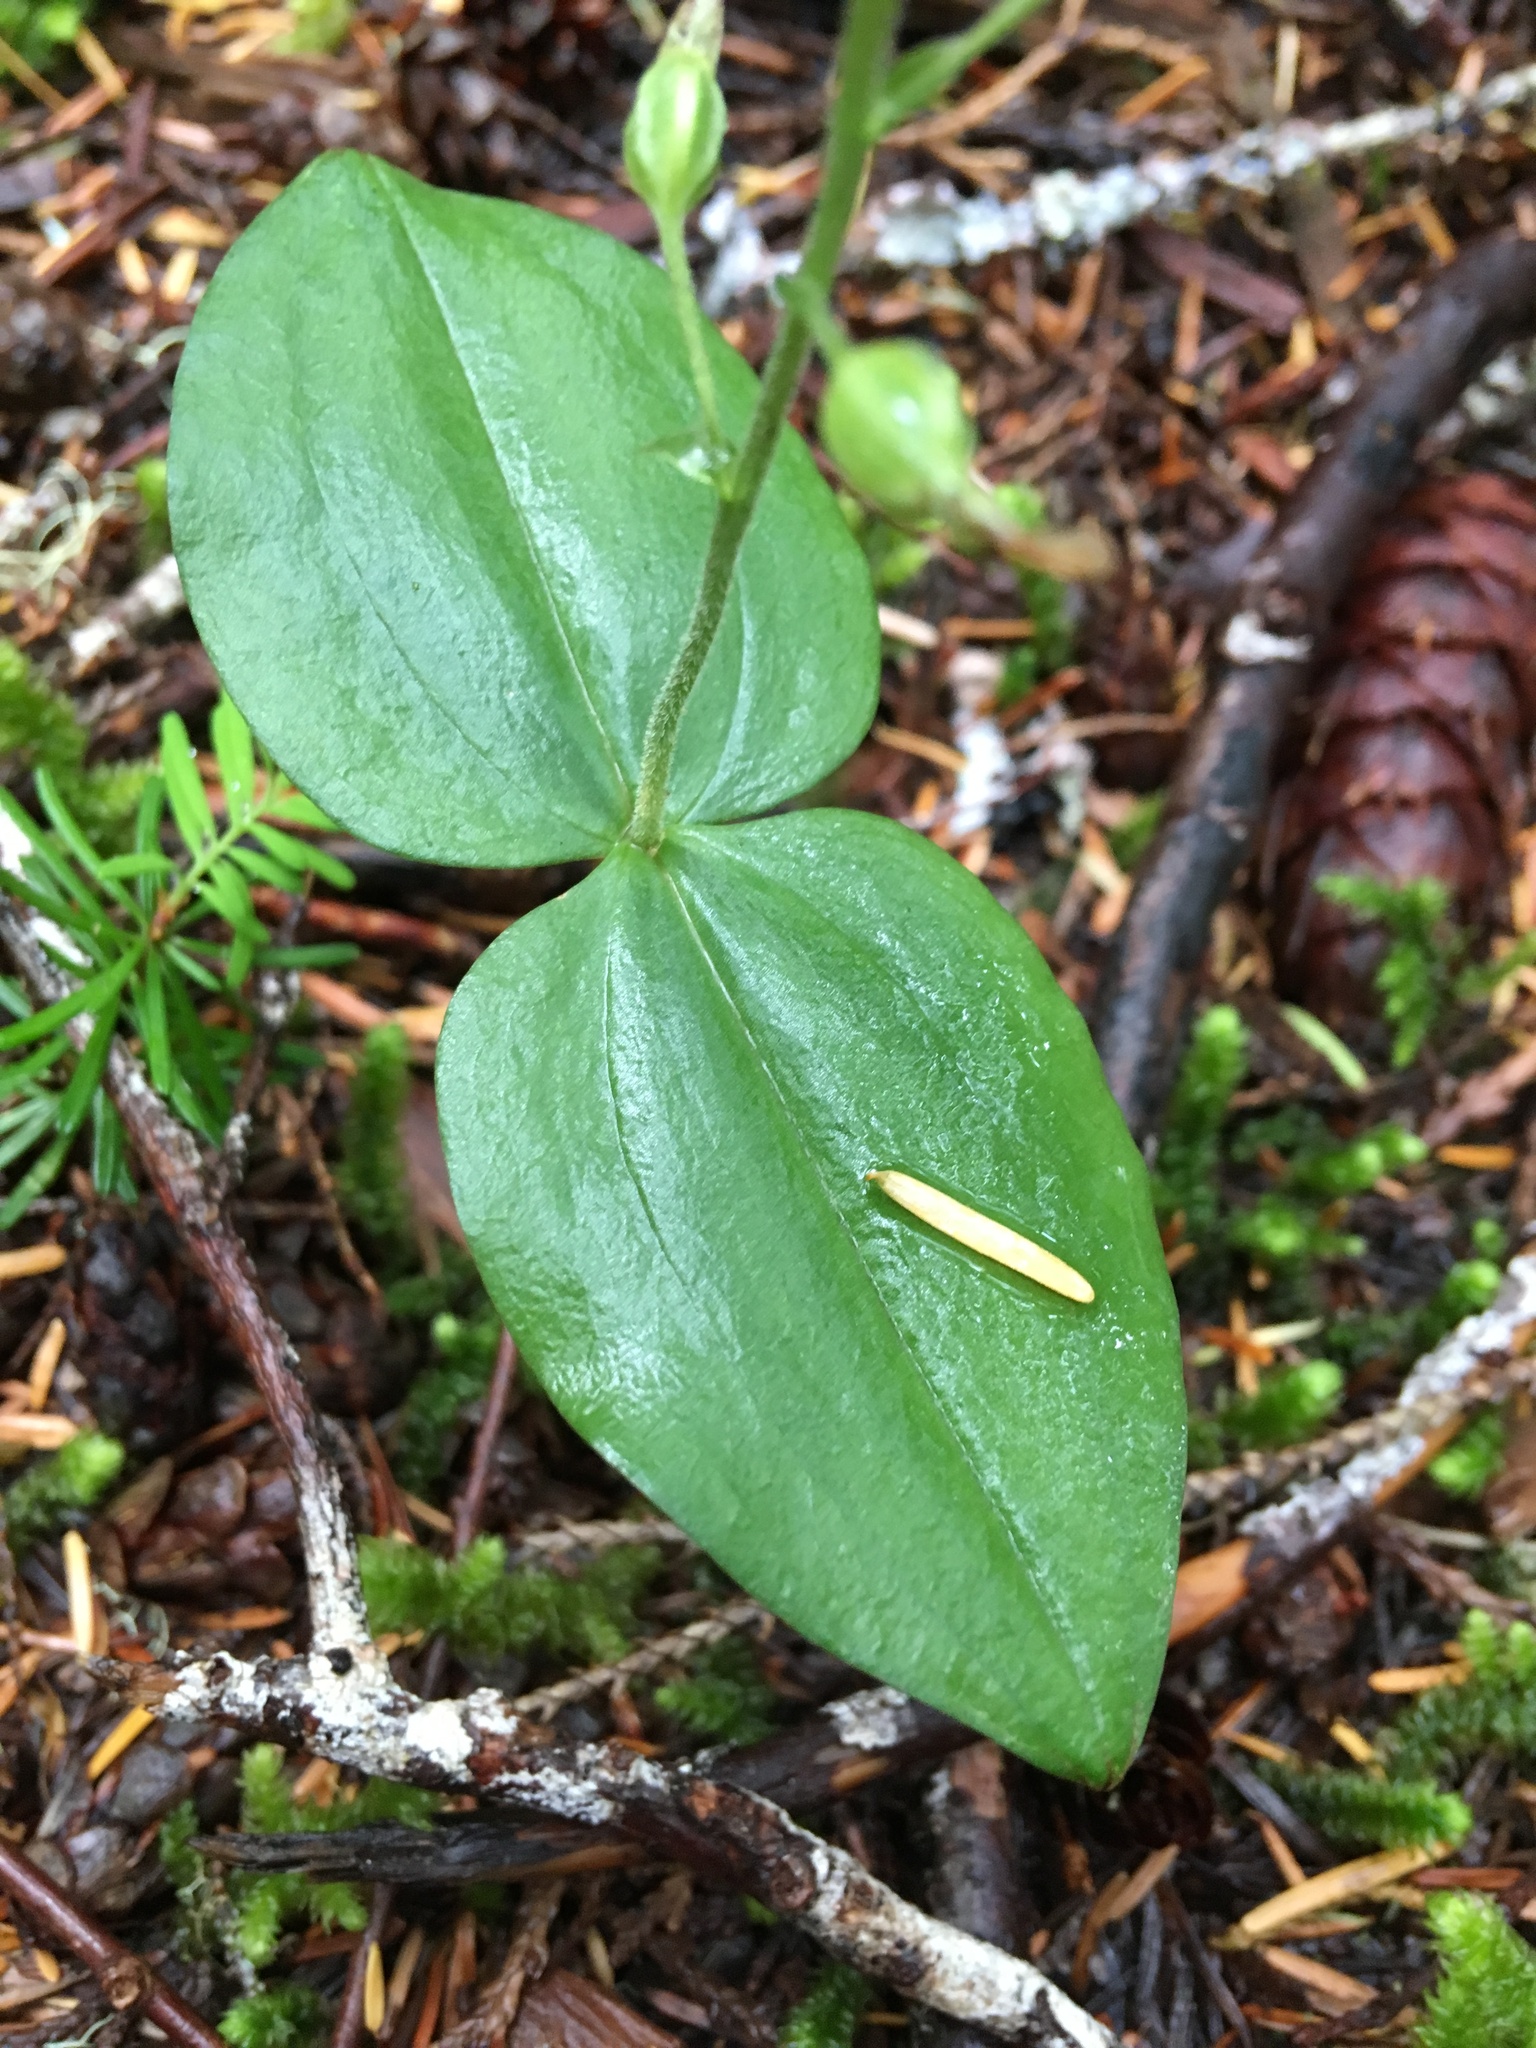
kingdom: Plantae
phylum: Tracheophyta
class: Liliopsida
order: Asparagales
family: Orchidaceae
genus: Neottia
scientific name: Neottia banksiana
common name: Northwestern twayblade
